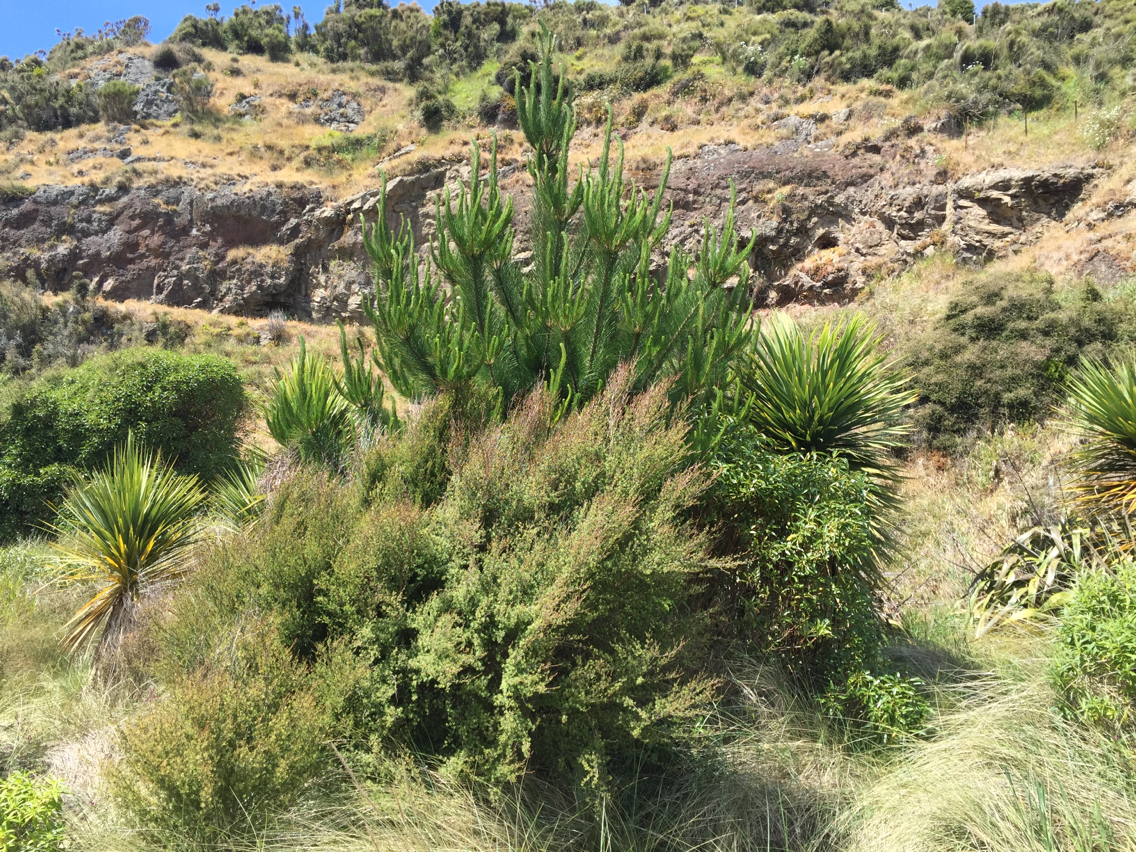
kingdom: Plantae
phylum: Tracheophyta
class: Pinopsida
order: Pinales
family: Pinaceae
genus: Pinus
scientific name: Pinus radiata
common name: Monterey pine
